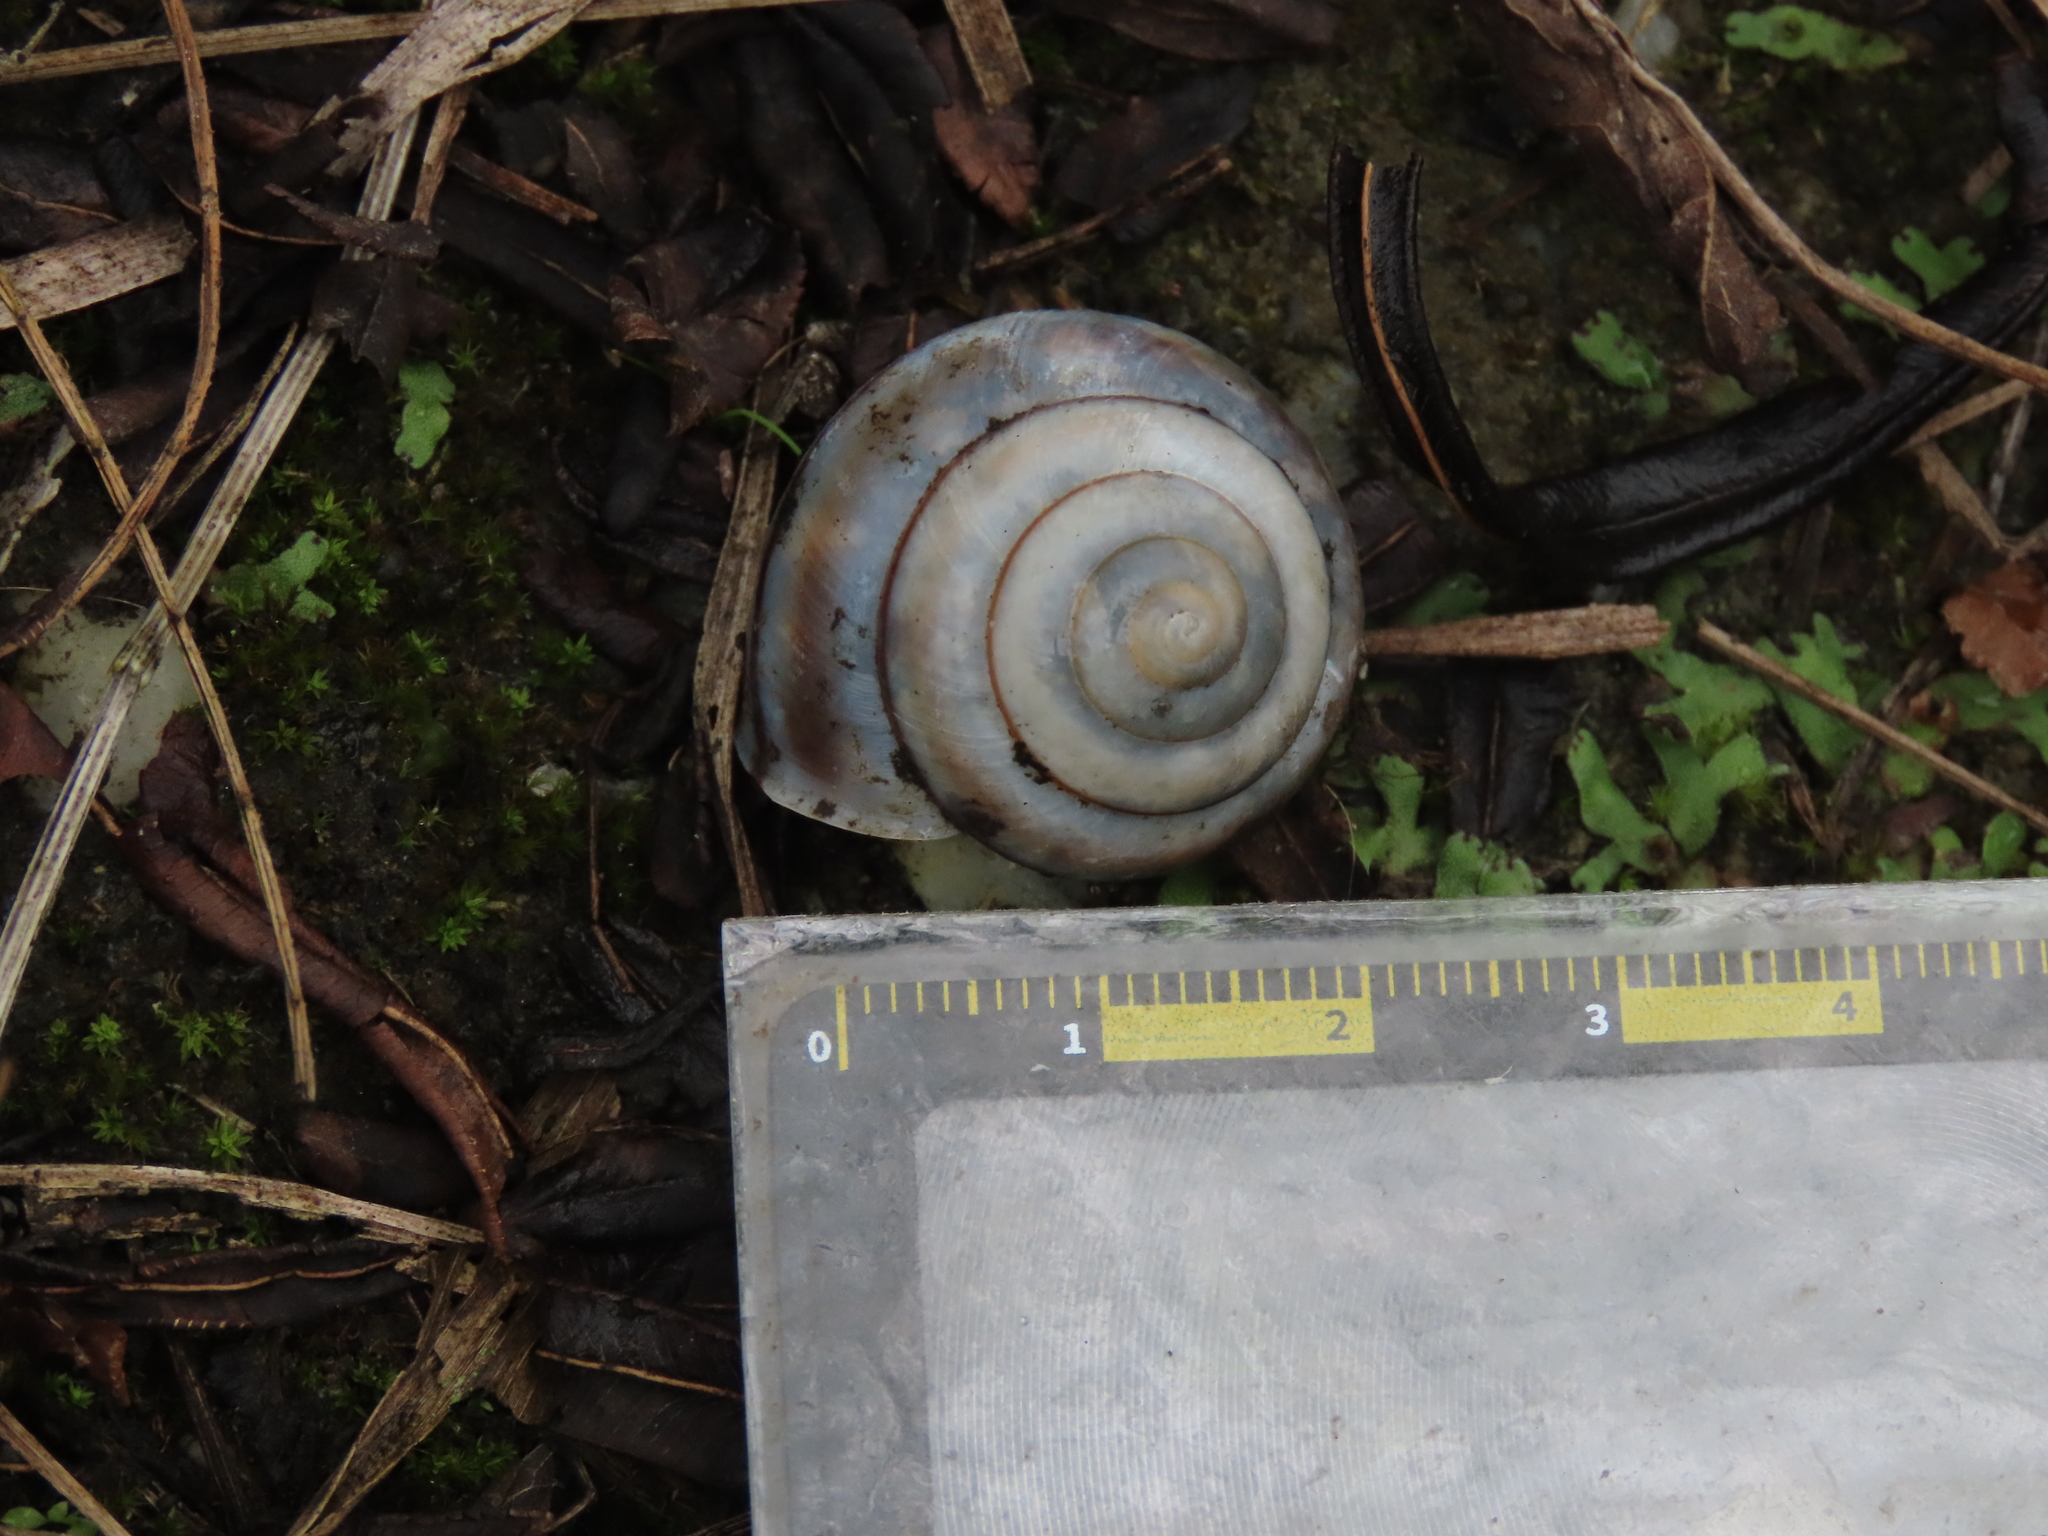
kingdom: Animalia
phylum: Mollusca
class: Gastropoda
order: Stylommatophora
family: Camaenidae
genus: Satsuma
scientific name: Satsuma wenshini
